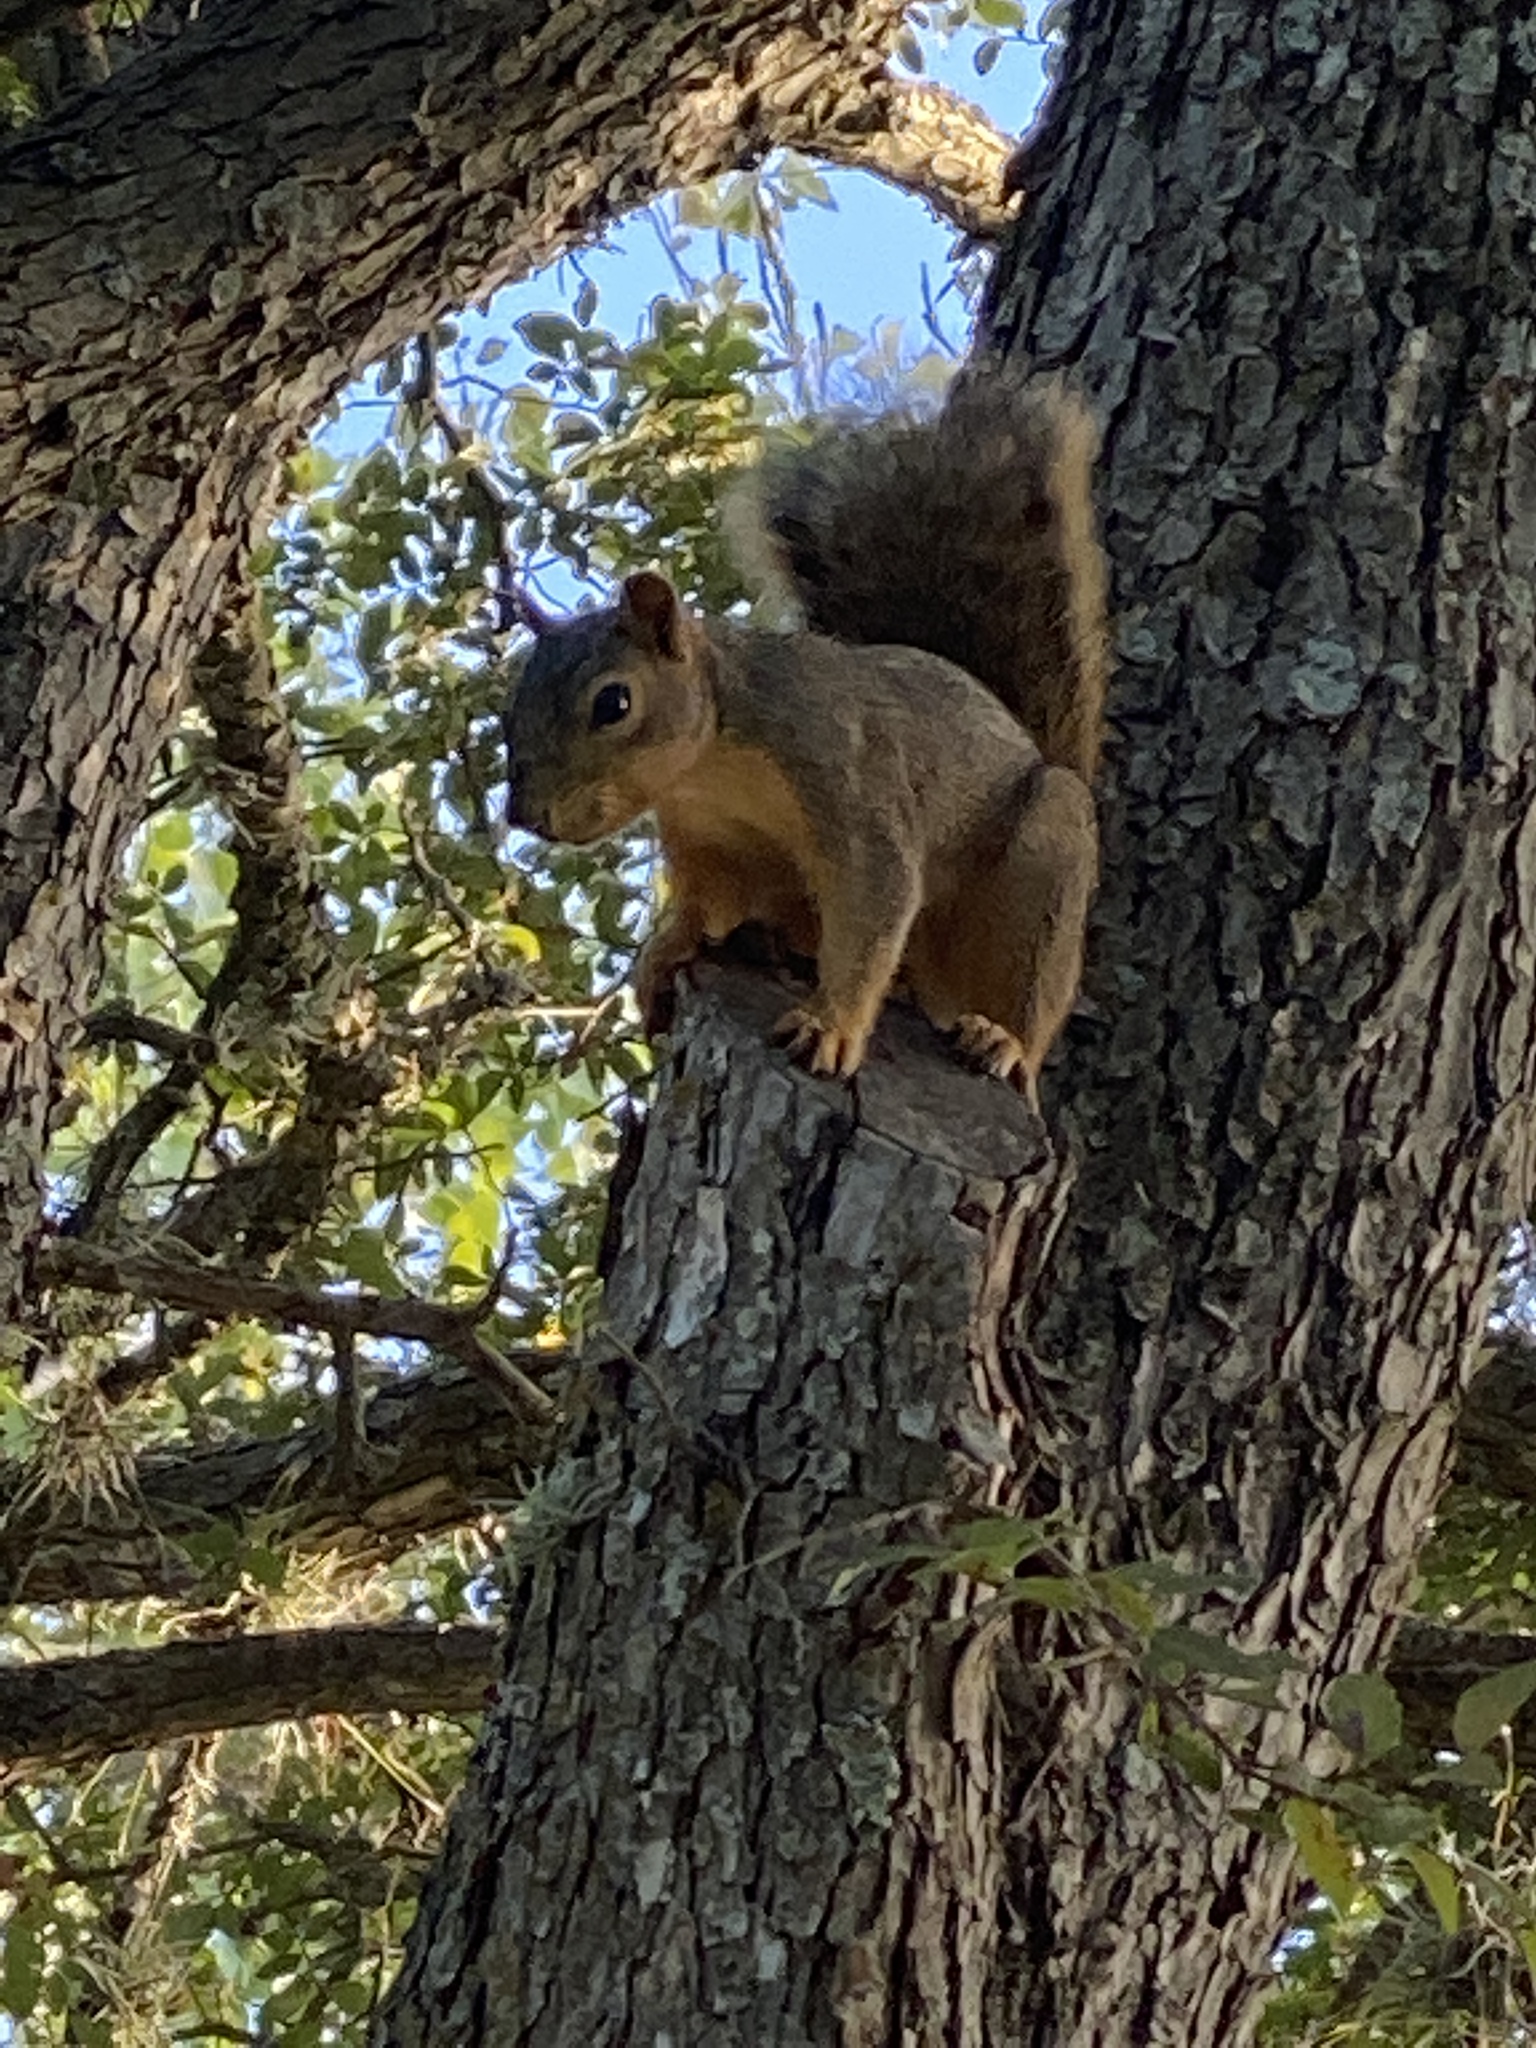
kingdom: Animalia
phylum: Chordata
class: Mammalia
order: Rodentia
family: Sciuridae
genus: Sciurus
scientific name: Sciurus niger
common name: Fox squirrel
